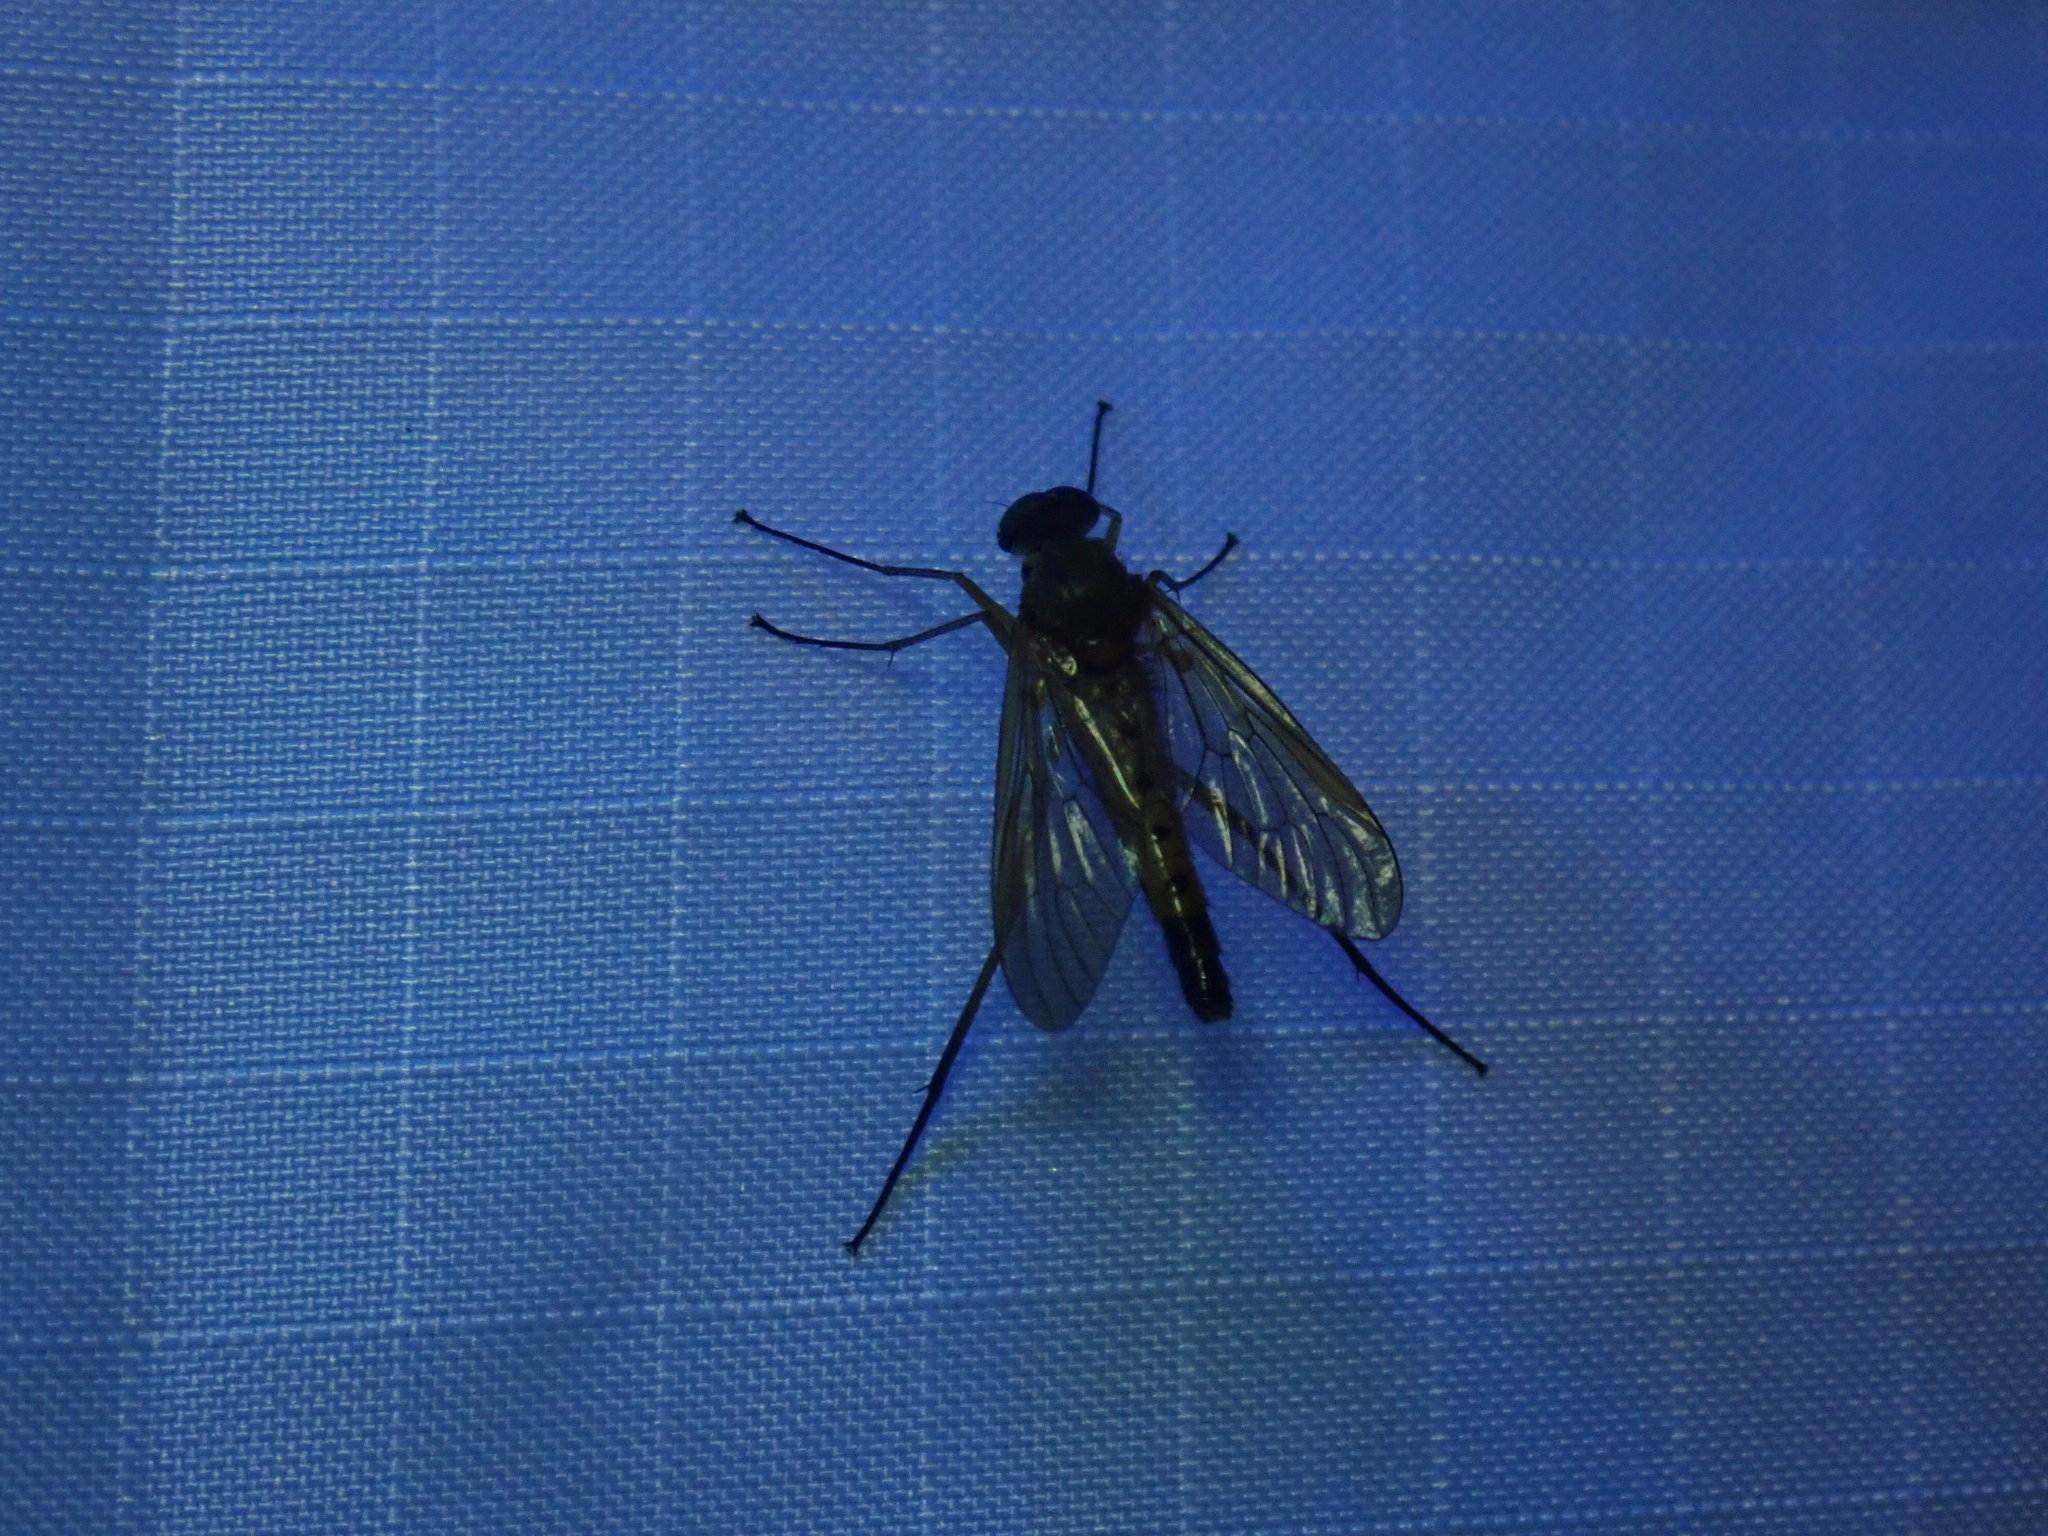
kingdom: Animalia
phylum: Arthropoda
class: Insecta
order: Diptera
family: Rhagionidae
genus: Rhagio
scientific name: Rhagio tringaria
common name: Marsh snipefly
